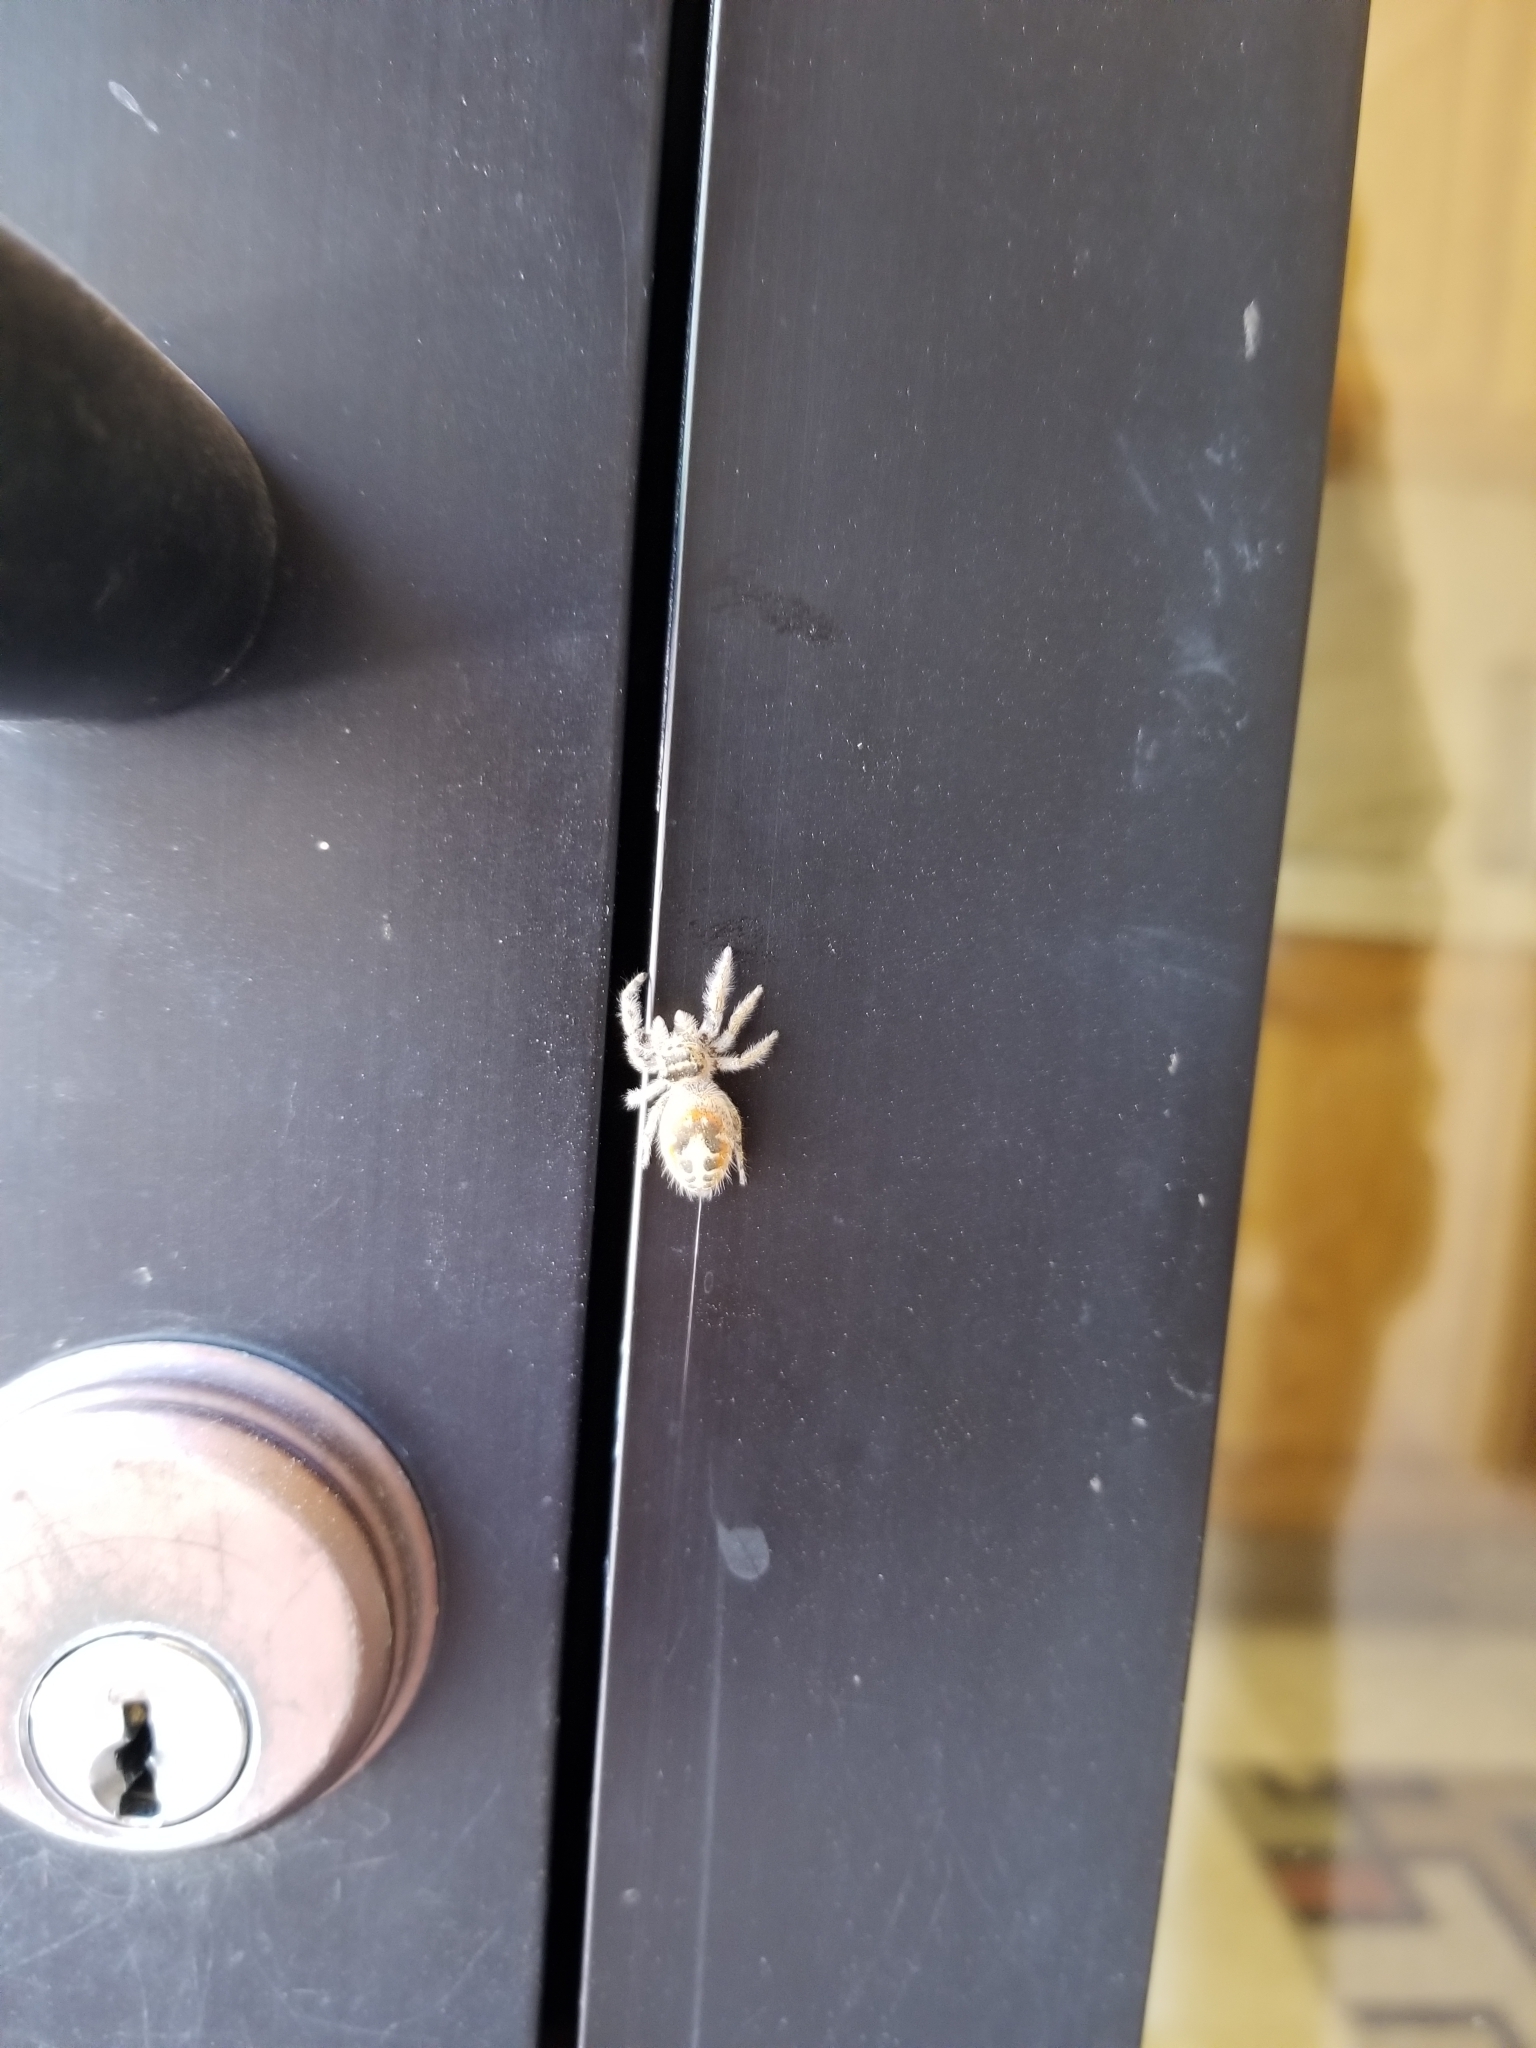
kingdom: Animalia
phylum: Arthropoda
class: Arachnida
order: Araneae
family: Salticidae
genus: Phidippus
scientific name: Phidippus californicus
